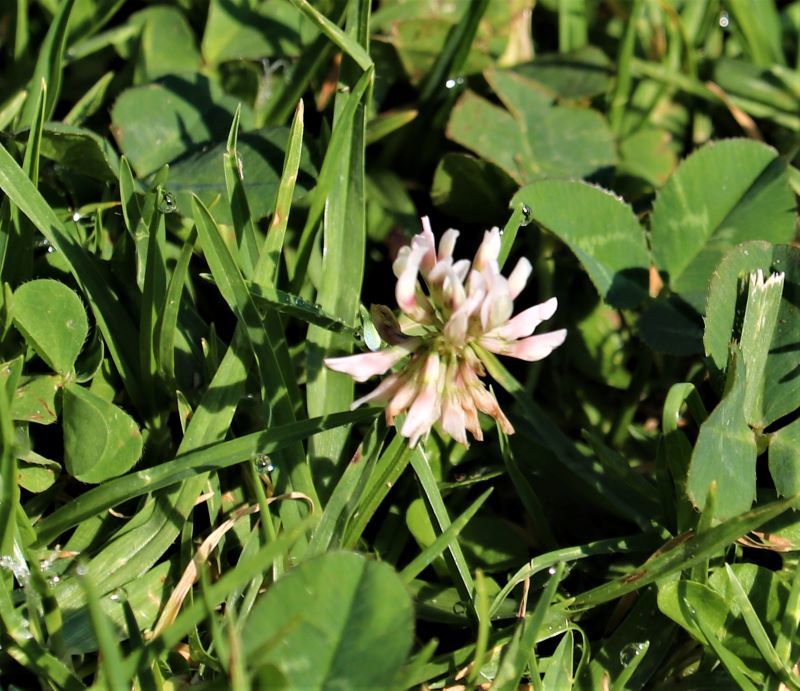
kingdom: Plantae
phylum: Tracheophyta
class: Magnoliopsida
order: Fabales
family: Fabaceae
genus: Trifolium
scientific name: Trifolium repens
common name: White clover
